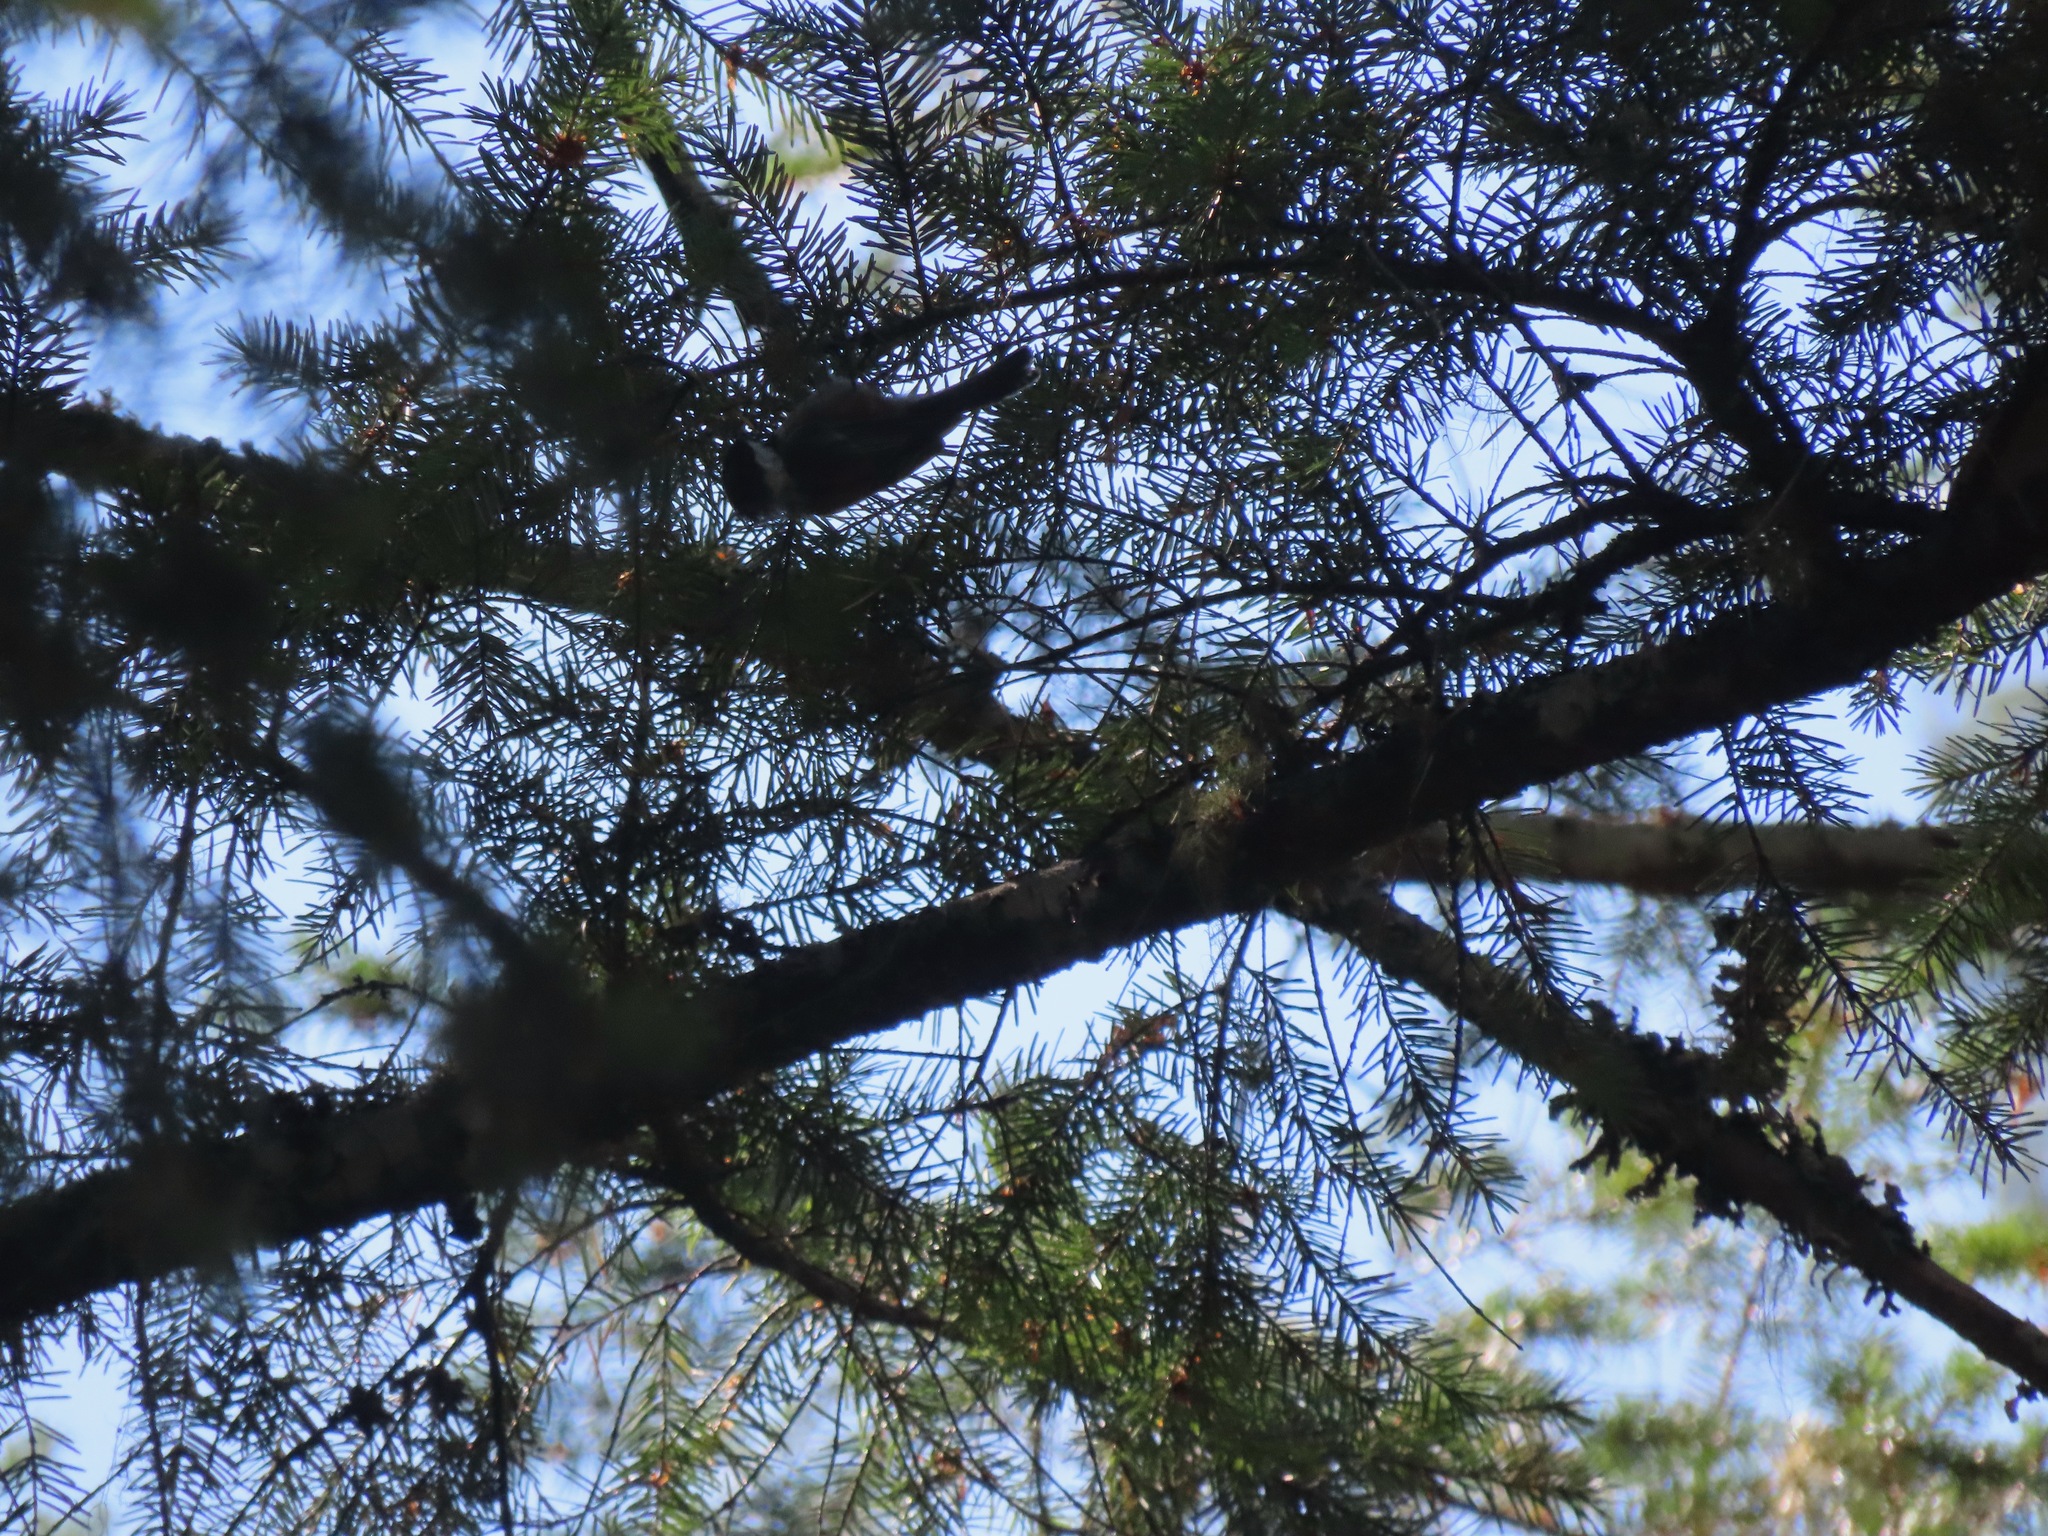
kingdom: Animalia
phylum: Chordata
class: Aves
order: Passeriformes
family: Paridae
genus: Poecile
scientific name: Poecile rufescens
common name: Chestnut-backed chickadee
